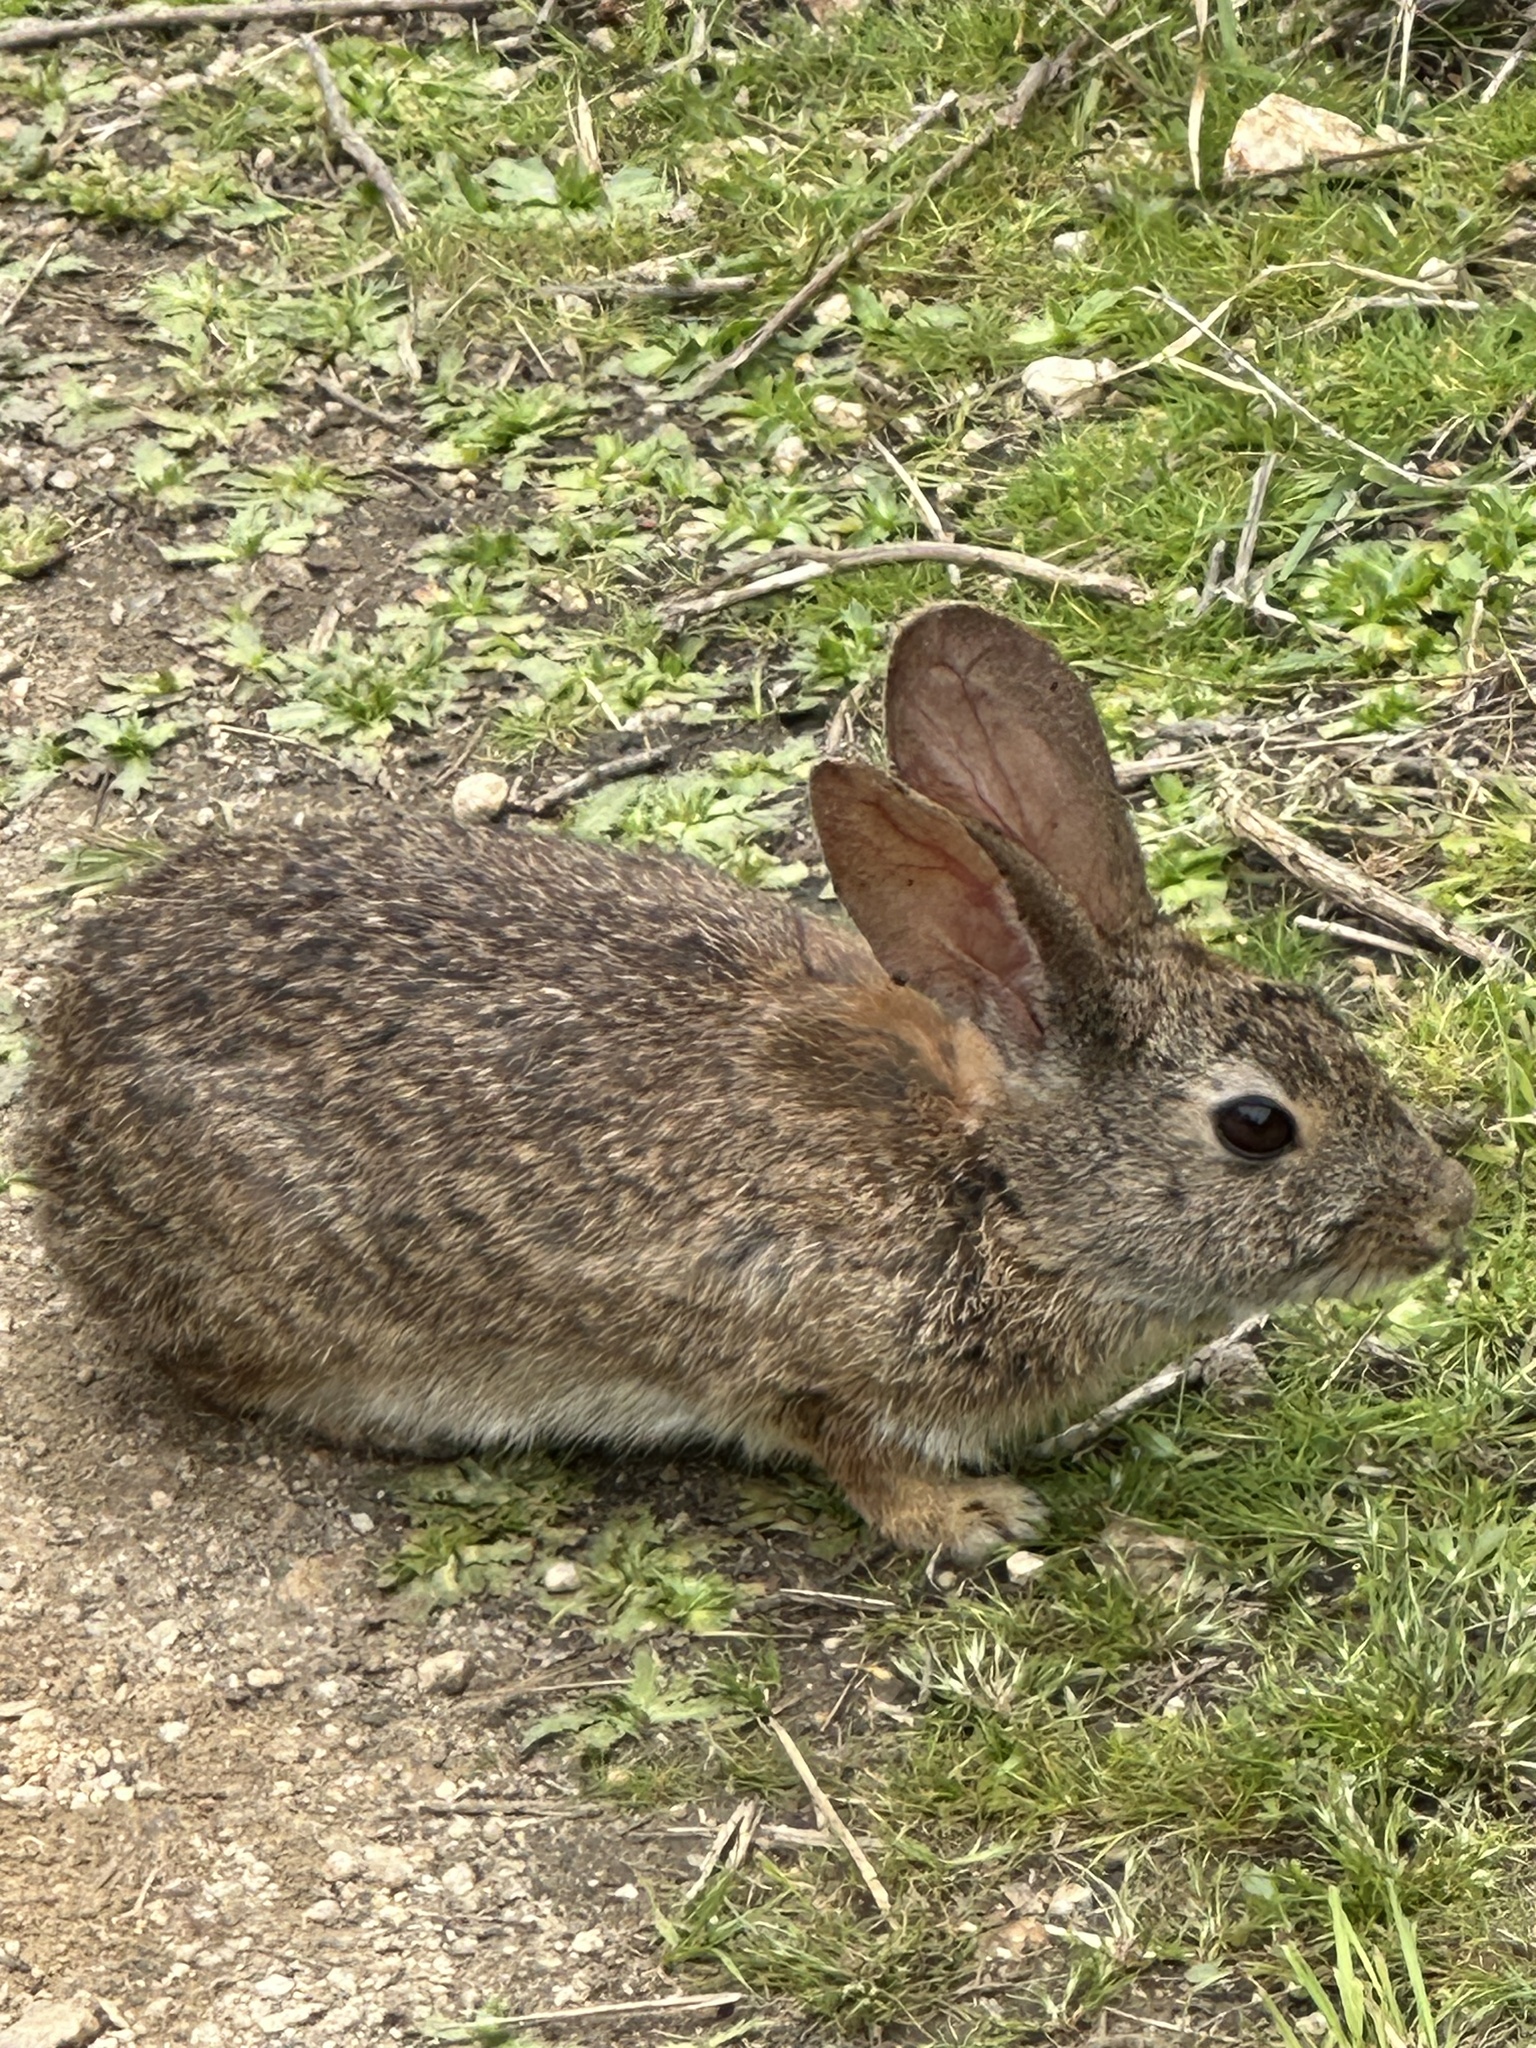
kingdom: Animalia
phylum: Chordata
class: Mammalia
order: Lagomorpha
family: Leporidae
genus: Sylvilagus
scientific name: Sylvilagus bachmani
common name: Brush rabbit
